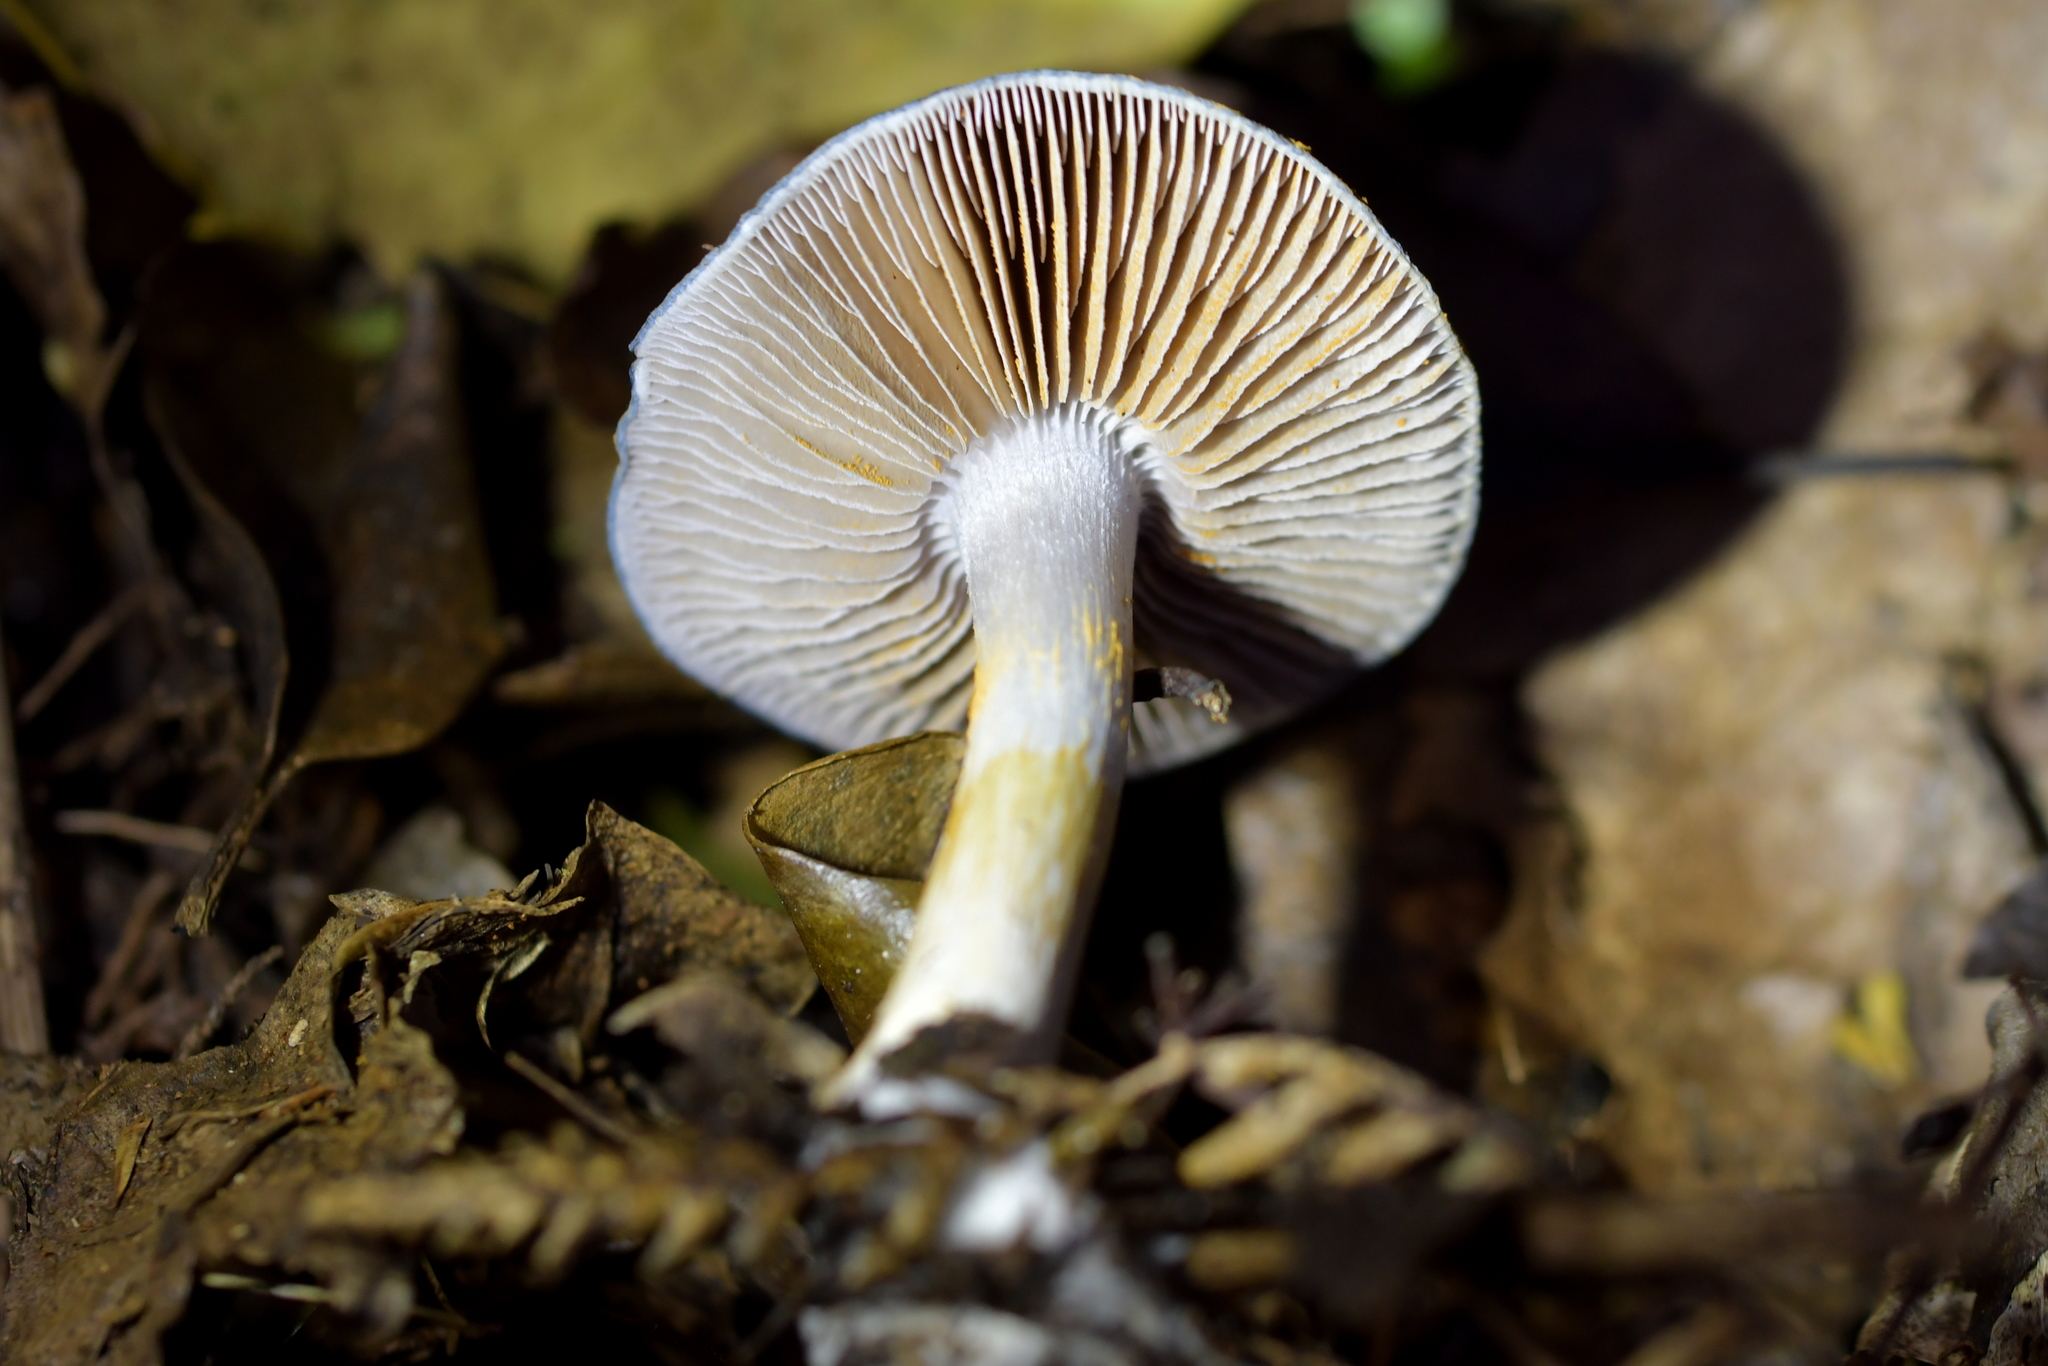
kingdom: Fungi
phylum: Basidiomycota
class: Agaricomycetes
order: Agaricales
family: Cortinariaceae
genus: Cortinarius
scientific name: Cortinarius rotundisporus
